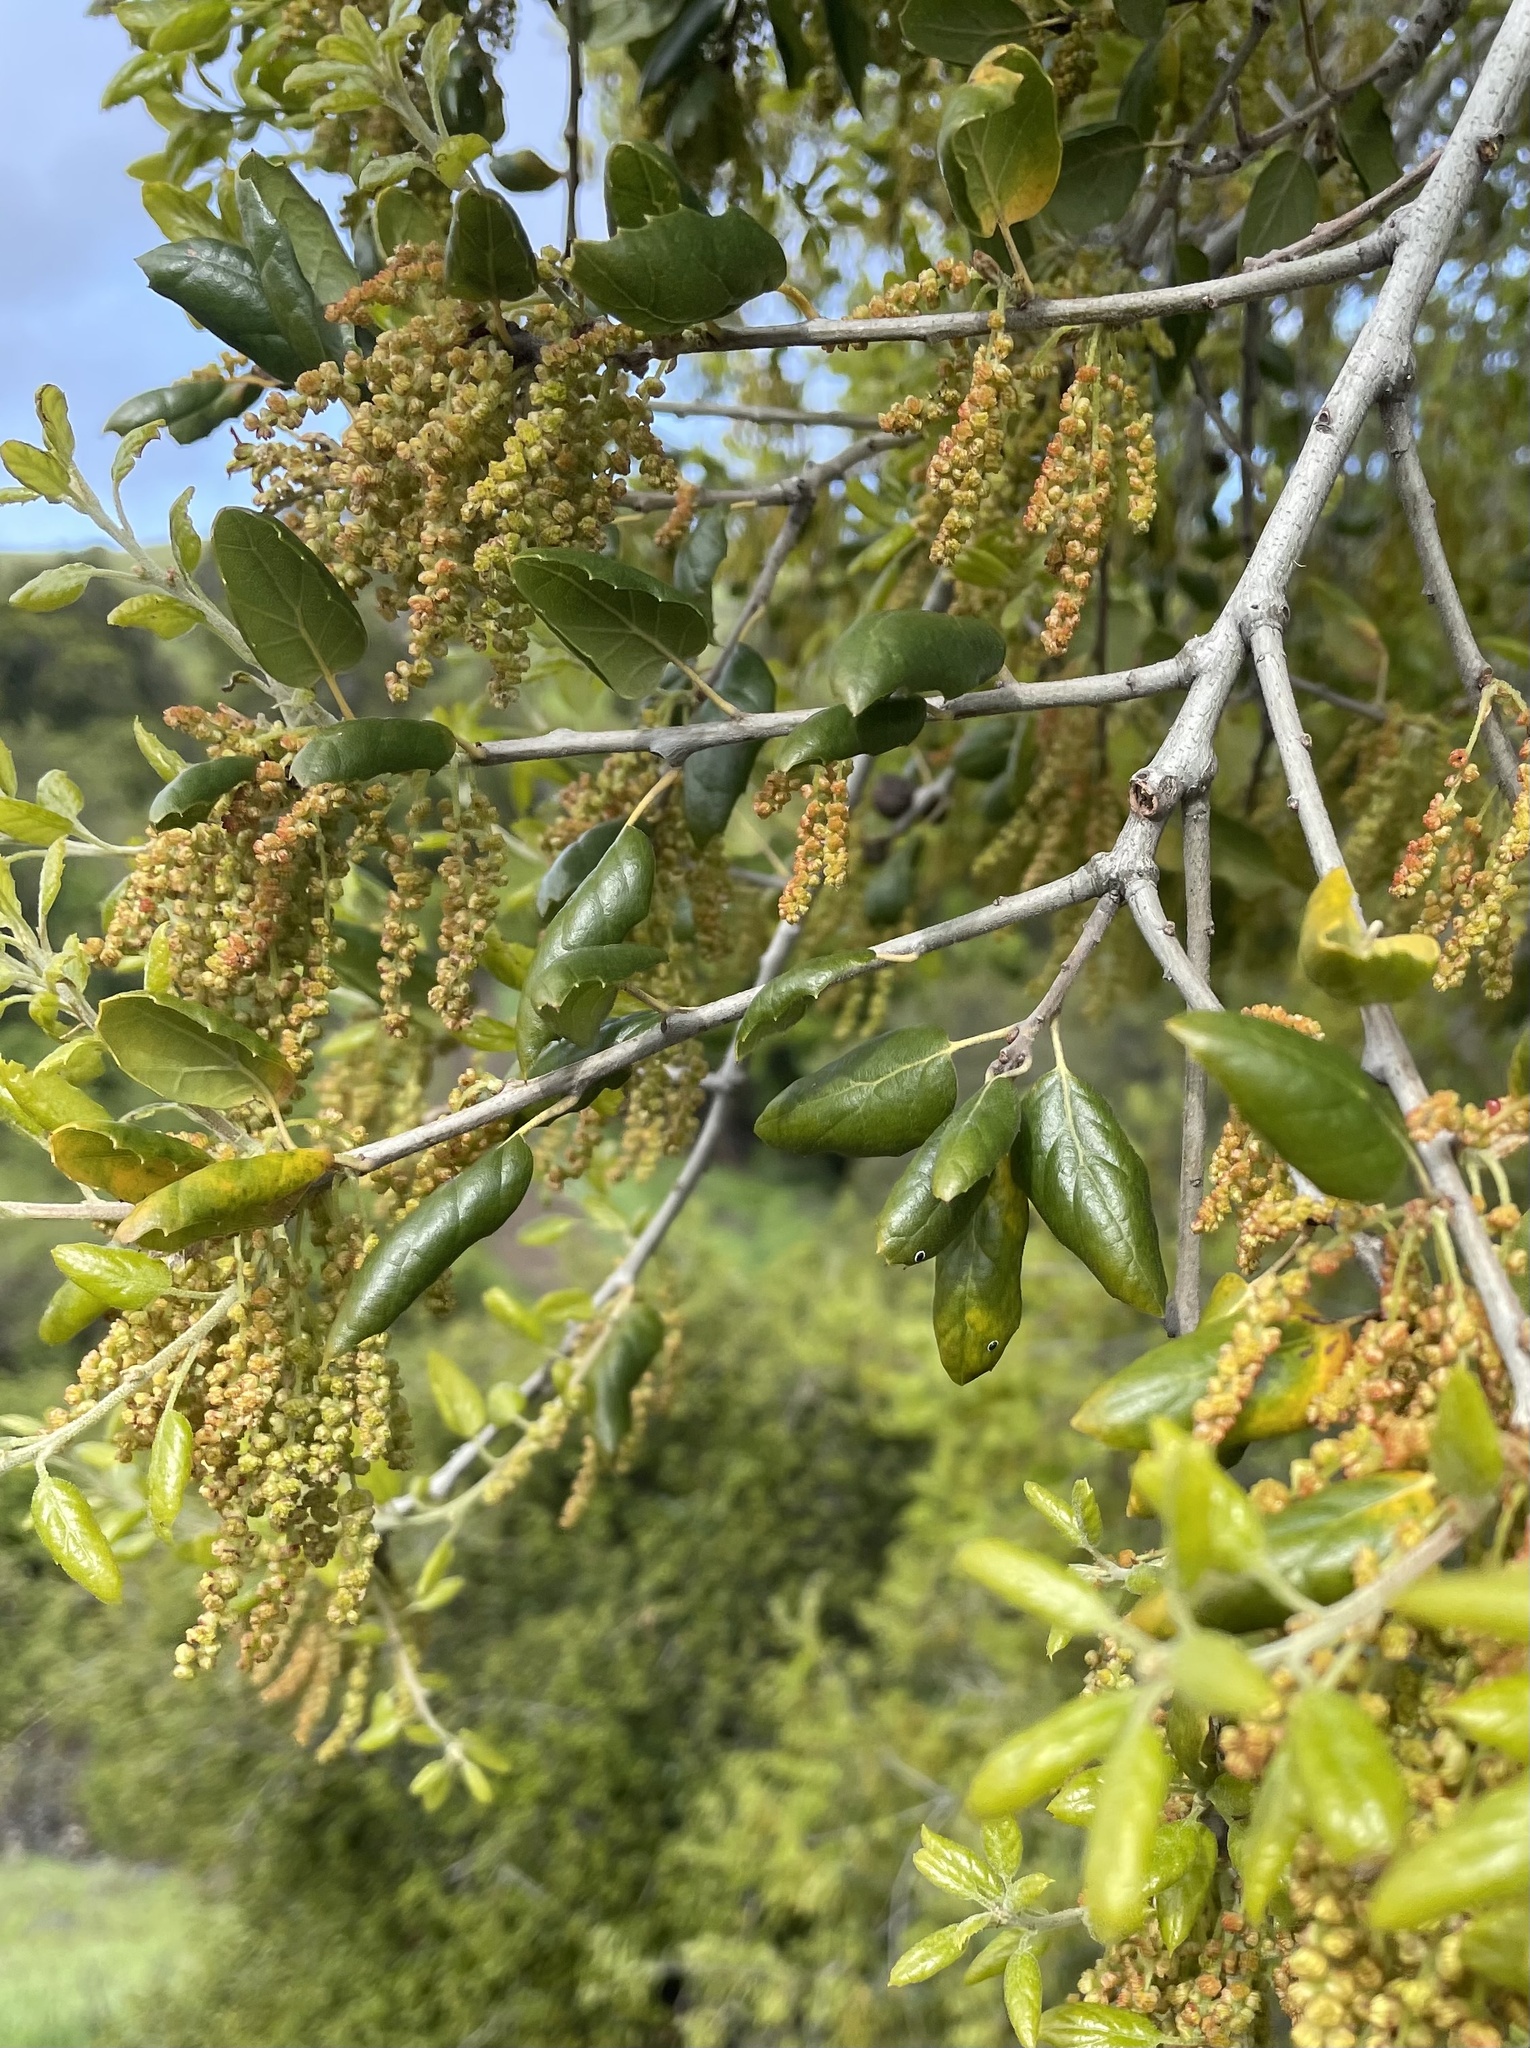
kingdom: Plantae
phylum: Tracheophyta
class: Magnoliopsida
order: Fagales
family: Fagaceae
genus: Quercus
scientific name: Quercus agrifolia
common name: California live oak
